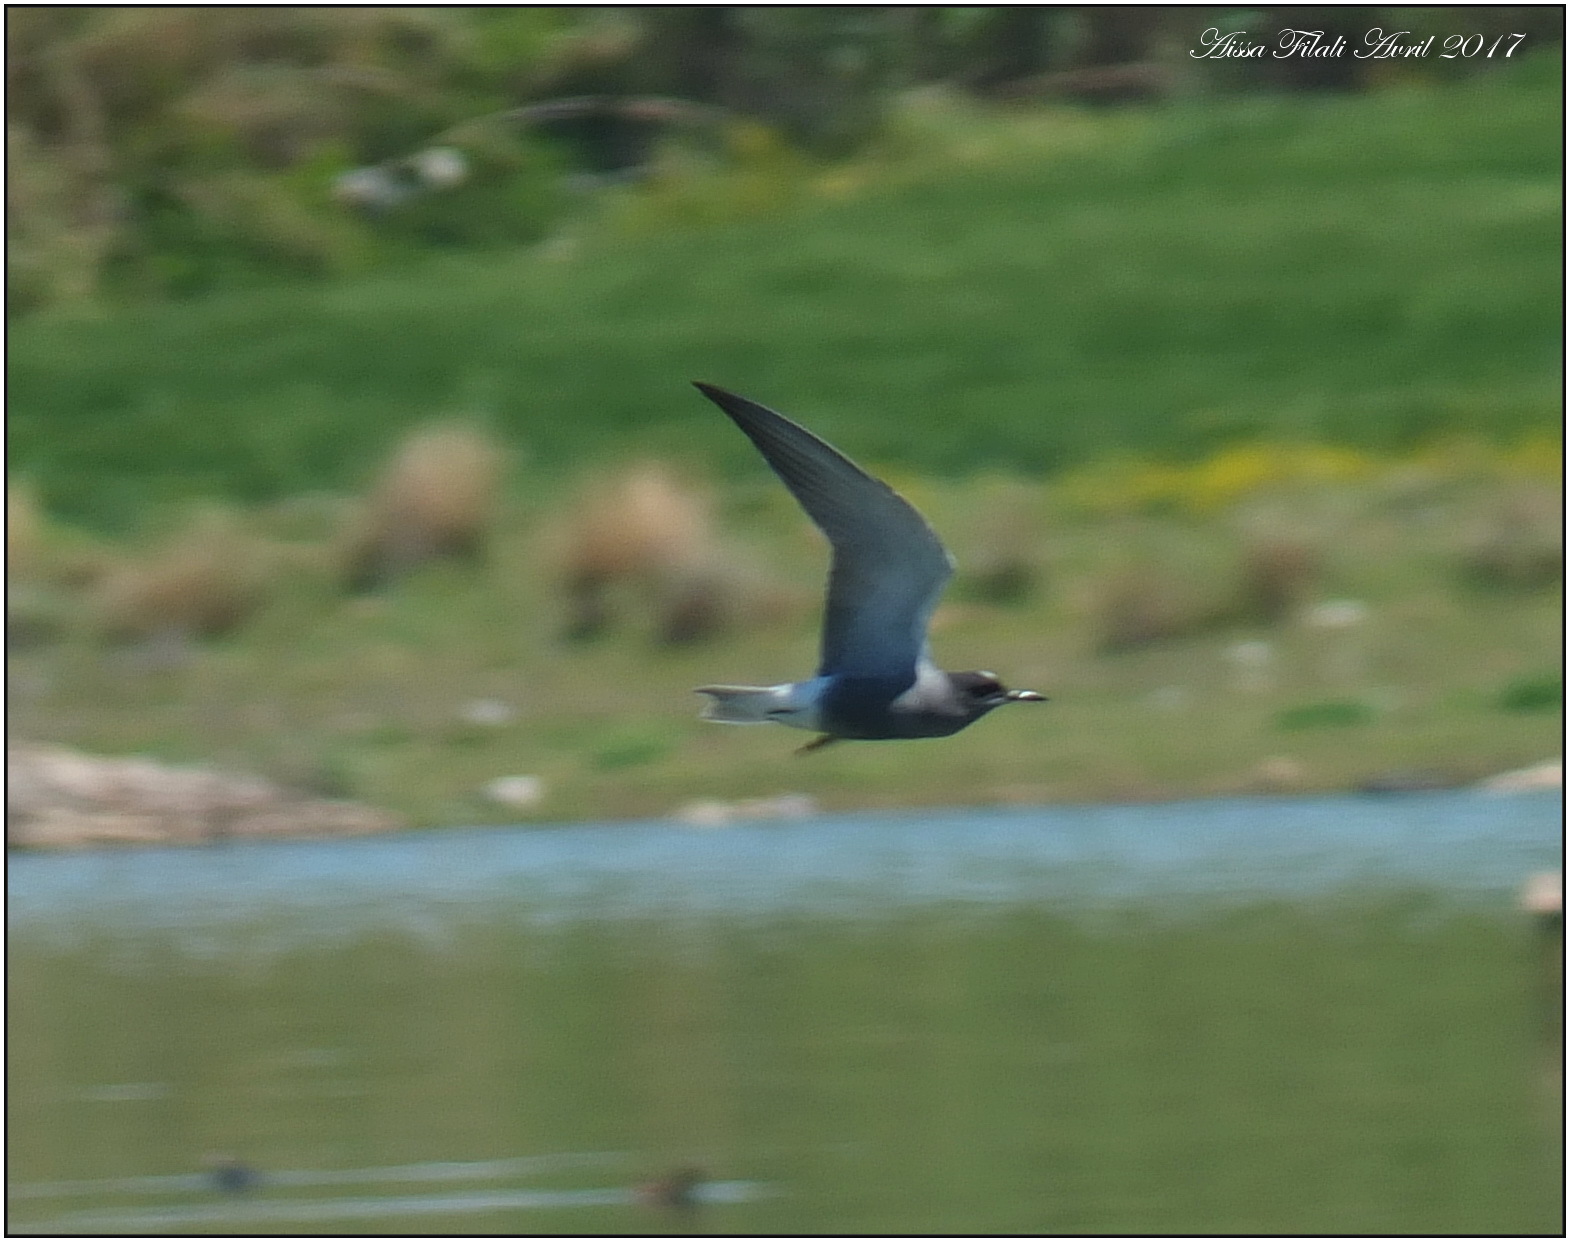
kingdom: Animalia
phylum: Chordata
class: Aves
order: Charadriiformes
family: Laridae
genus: Chlidonias
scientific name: Chlidonias niger
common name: Black tern
